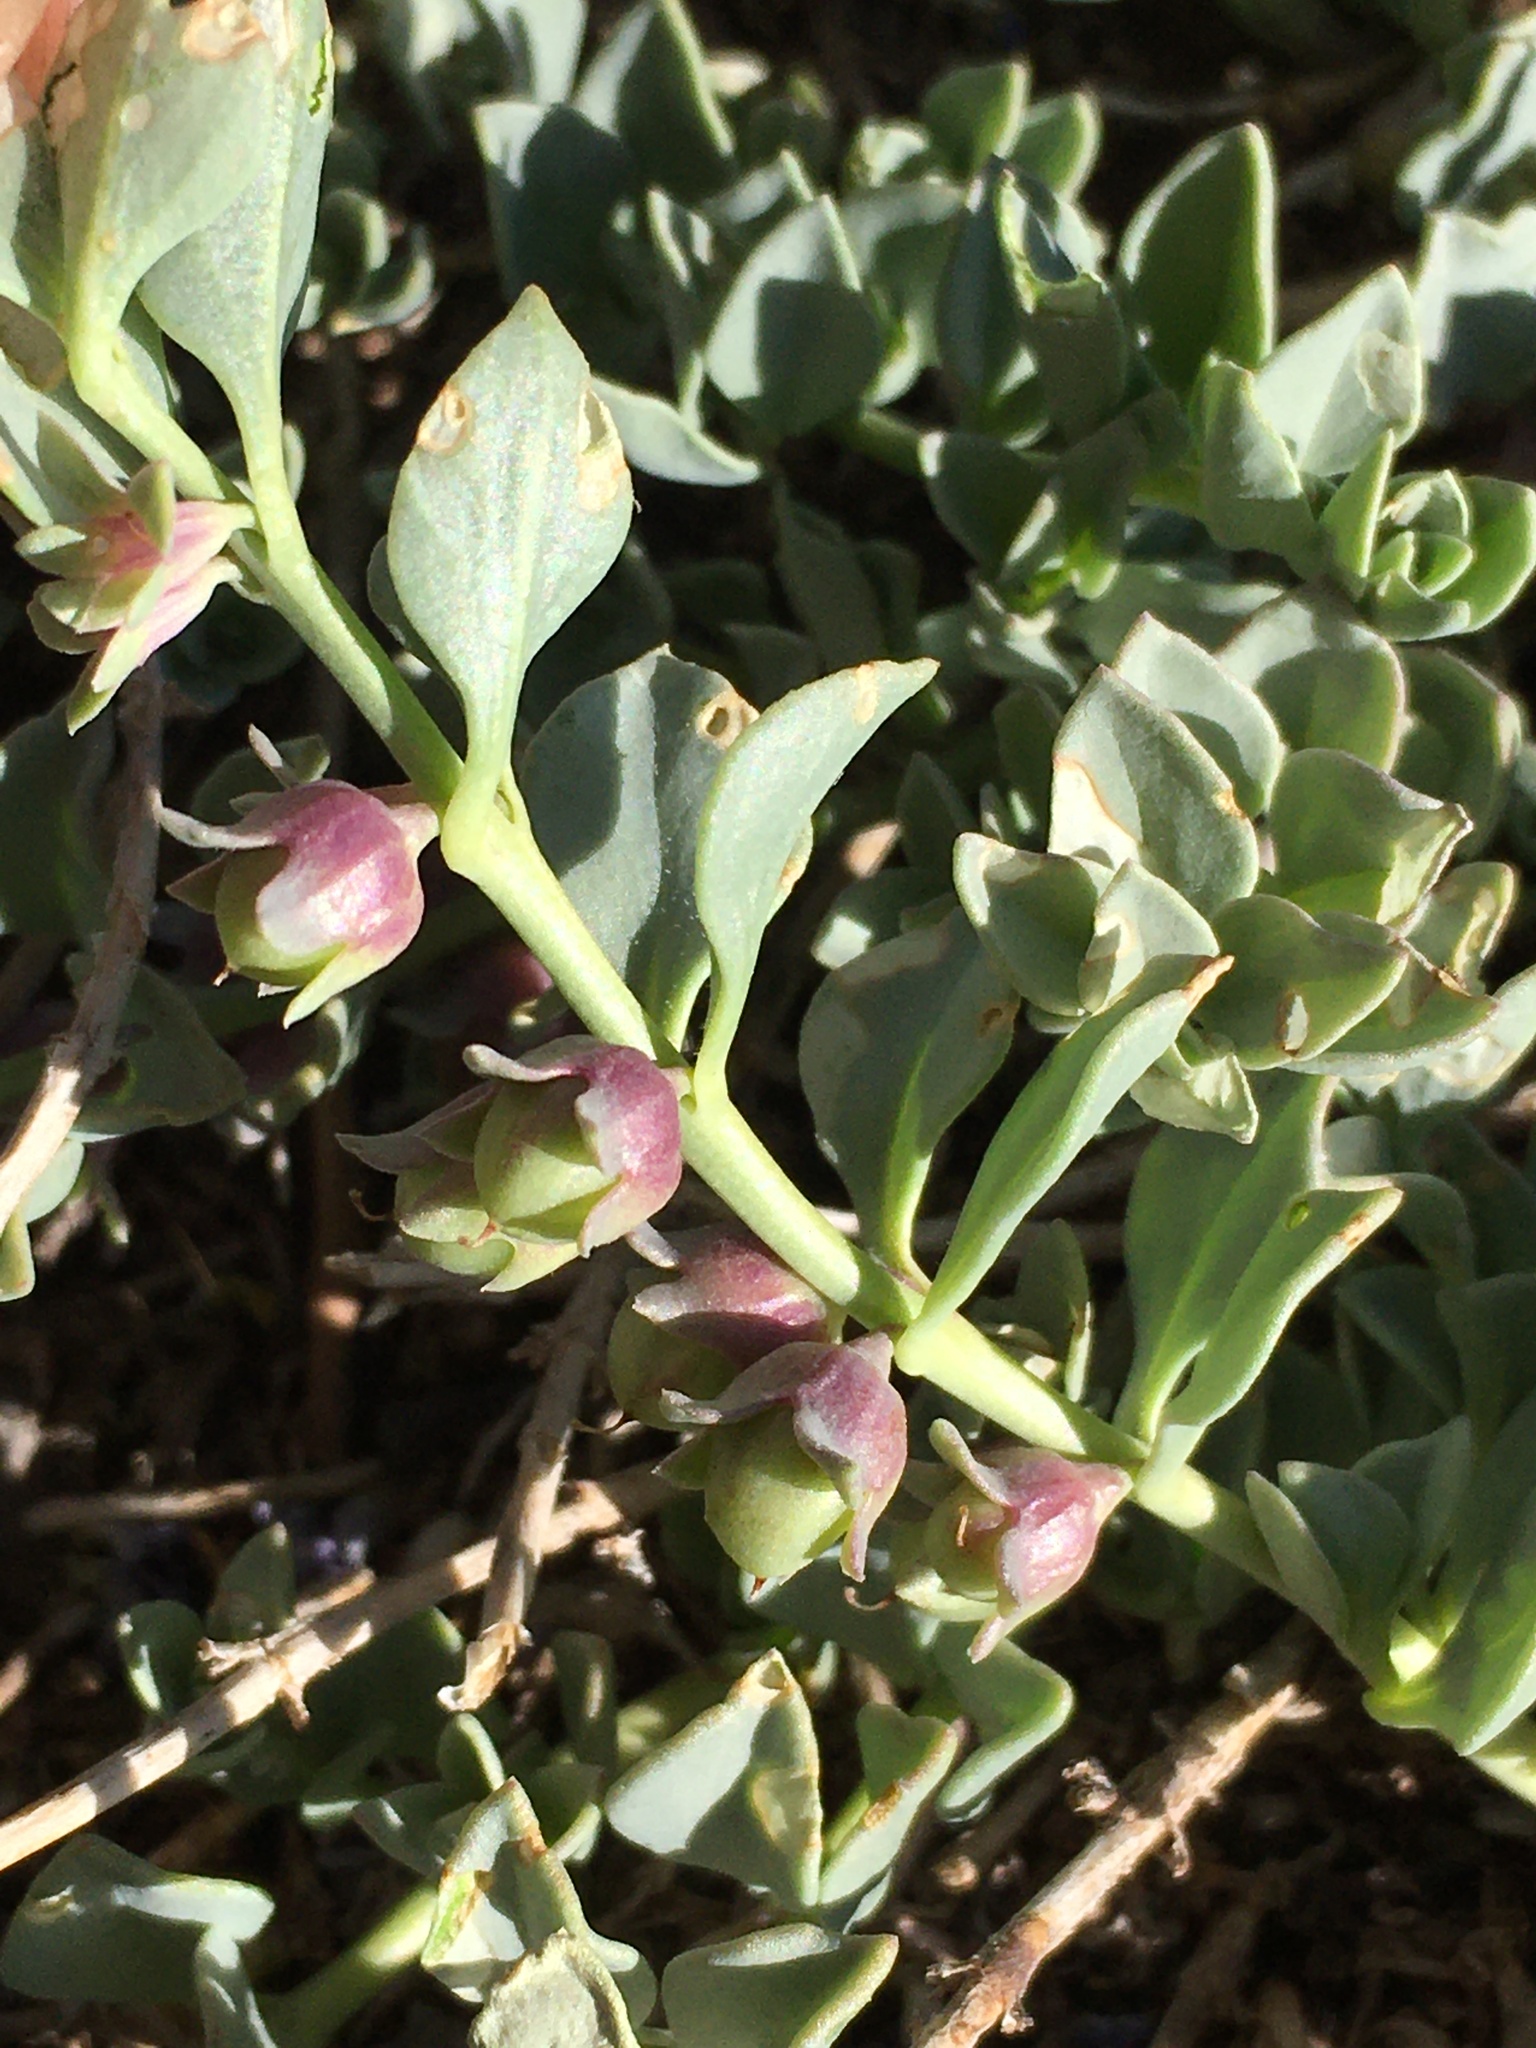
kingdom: Plantae
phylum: Tracheophyta
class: Magnoliopsida
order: Lamiales
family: Plantaginaceae
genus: Melosperma
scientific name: Melosperma andicola
